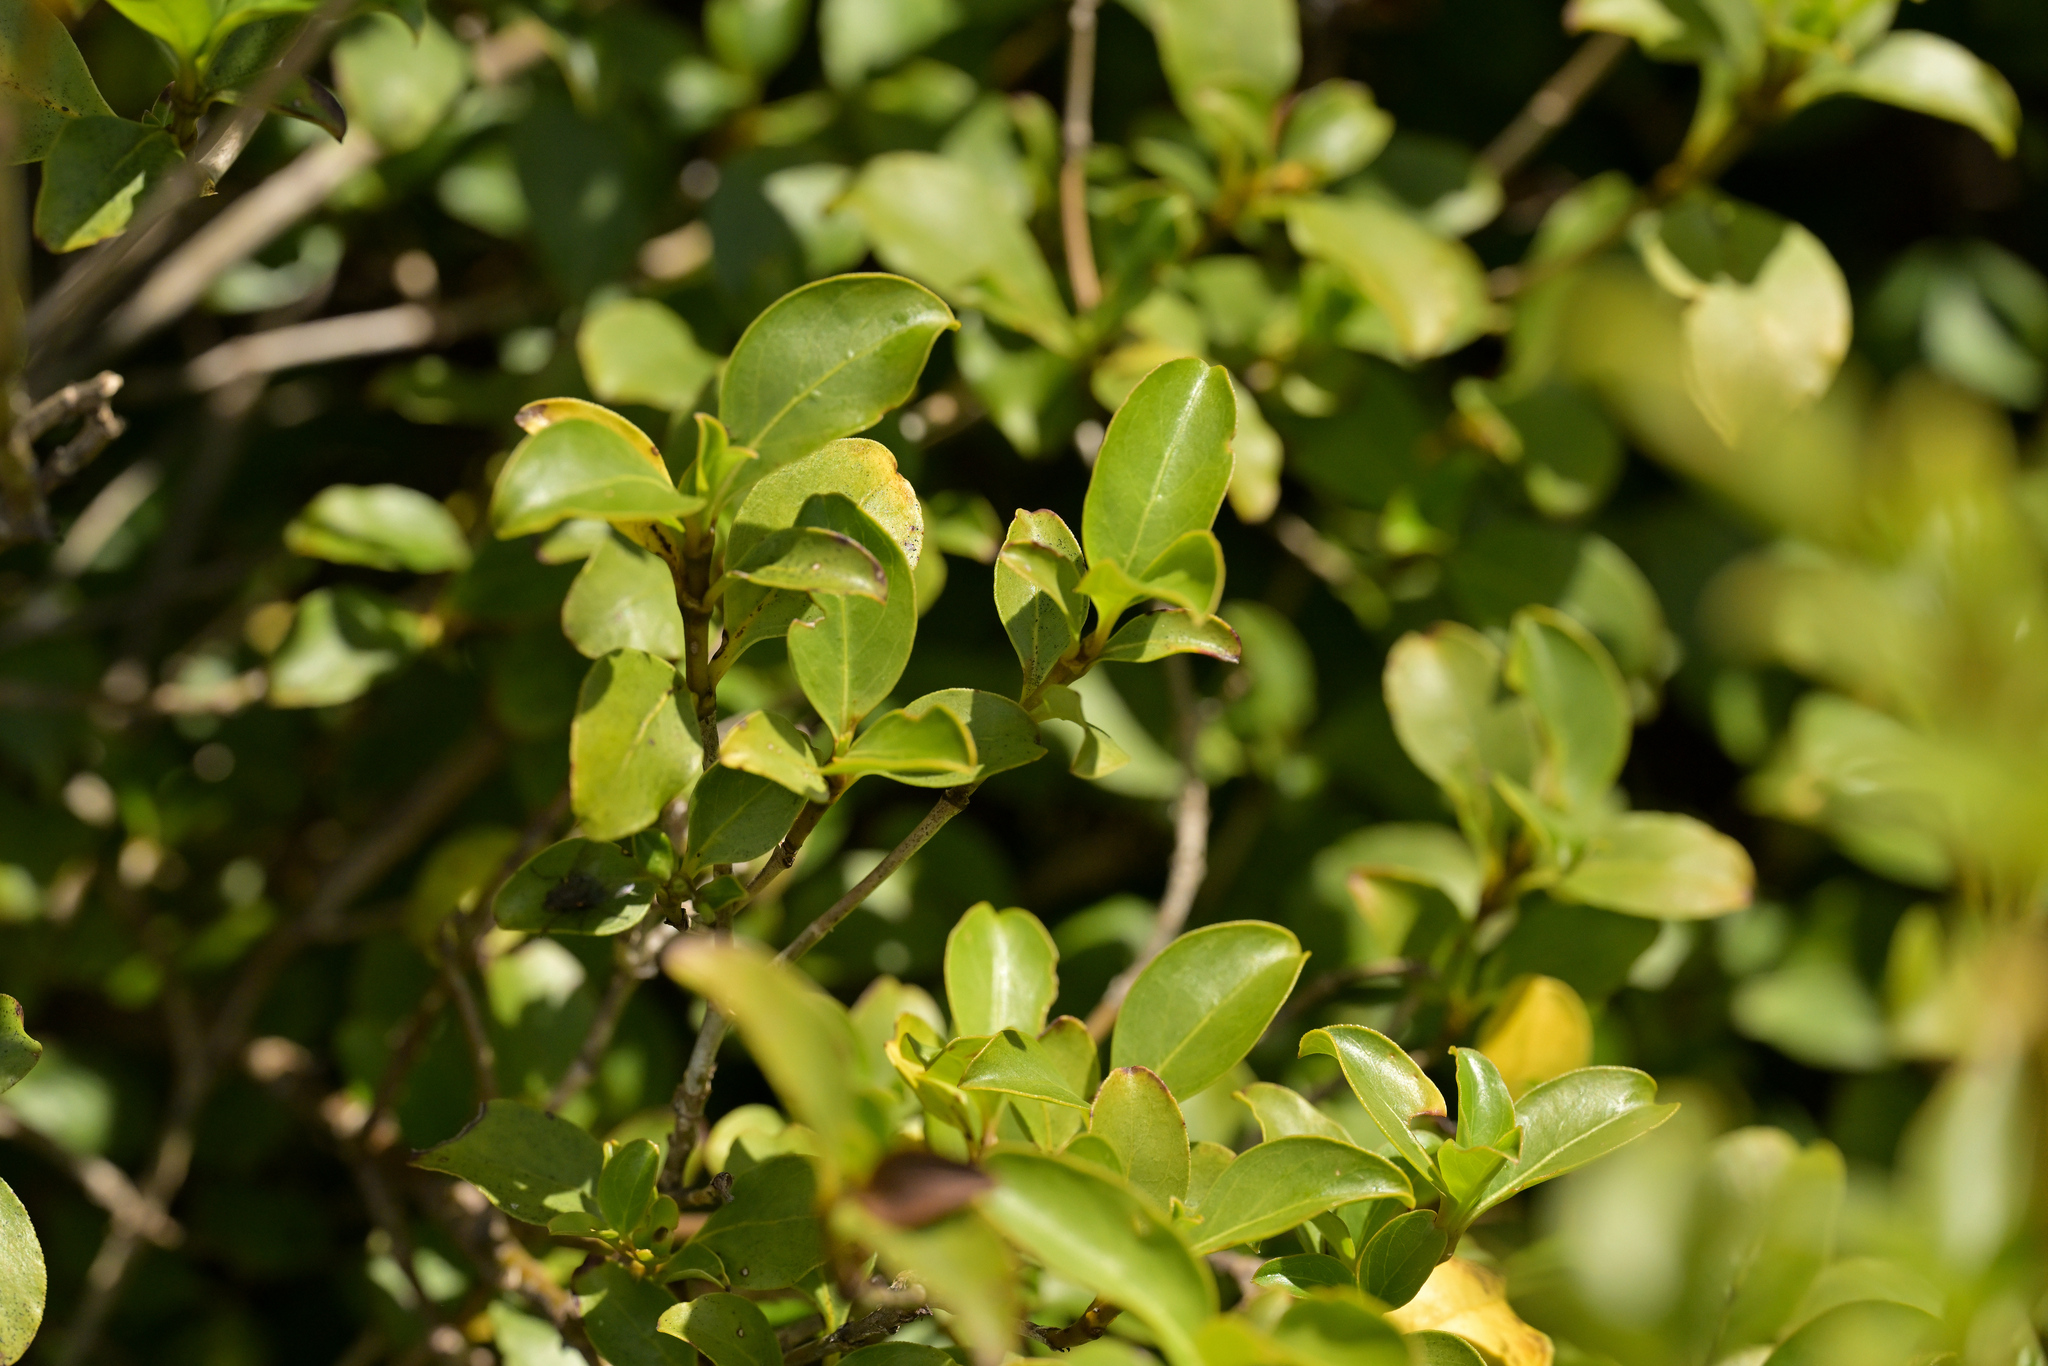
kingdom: Plantae
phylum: Tracheophyta
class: Magnoliopsida
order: Gentianales
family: Rubiaceae
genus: Coprosma
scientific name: Coprosma foetidissima
